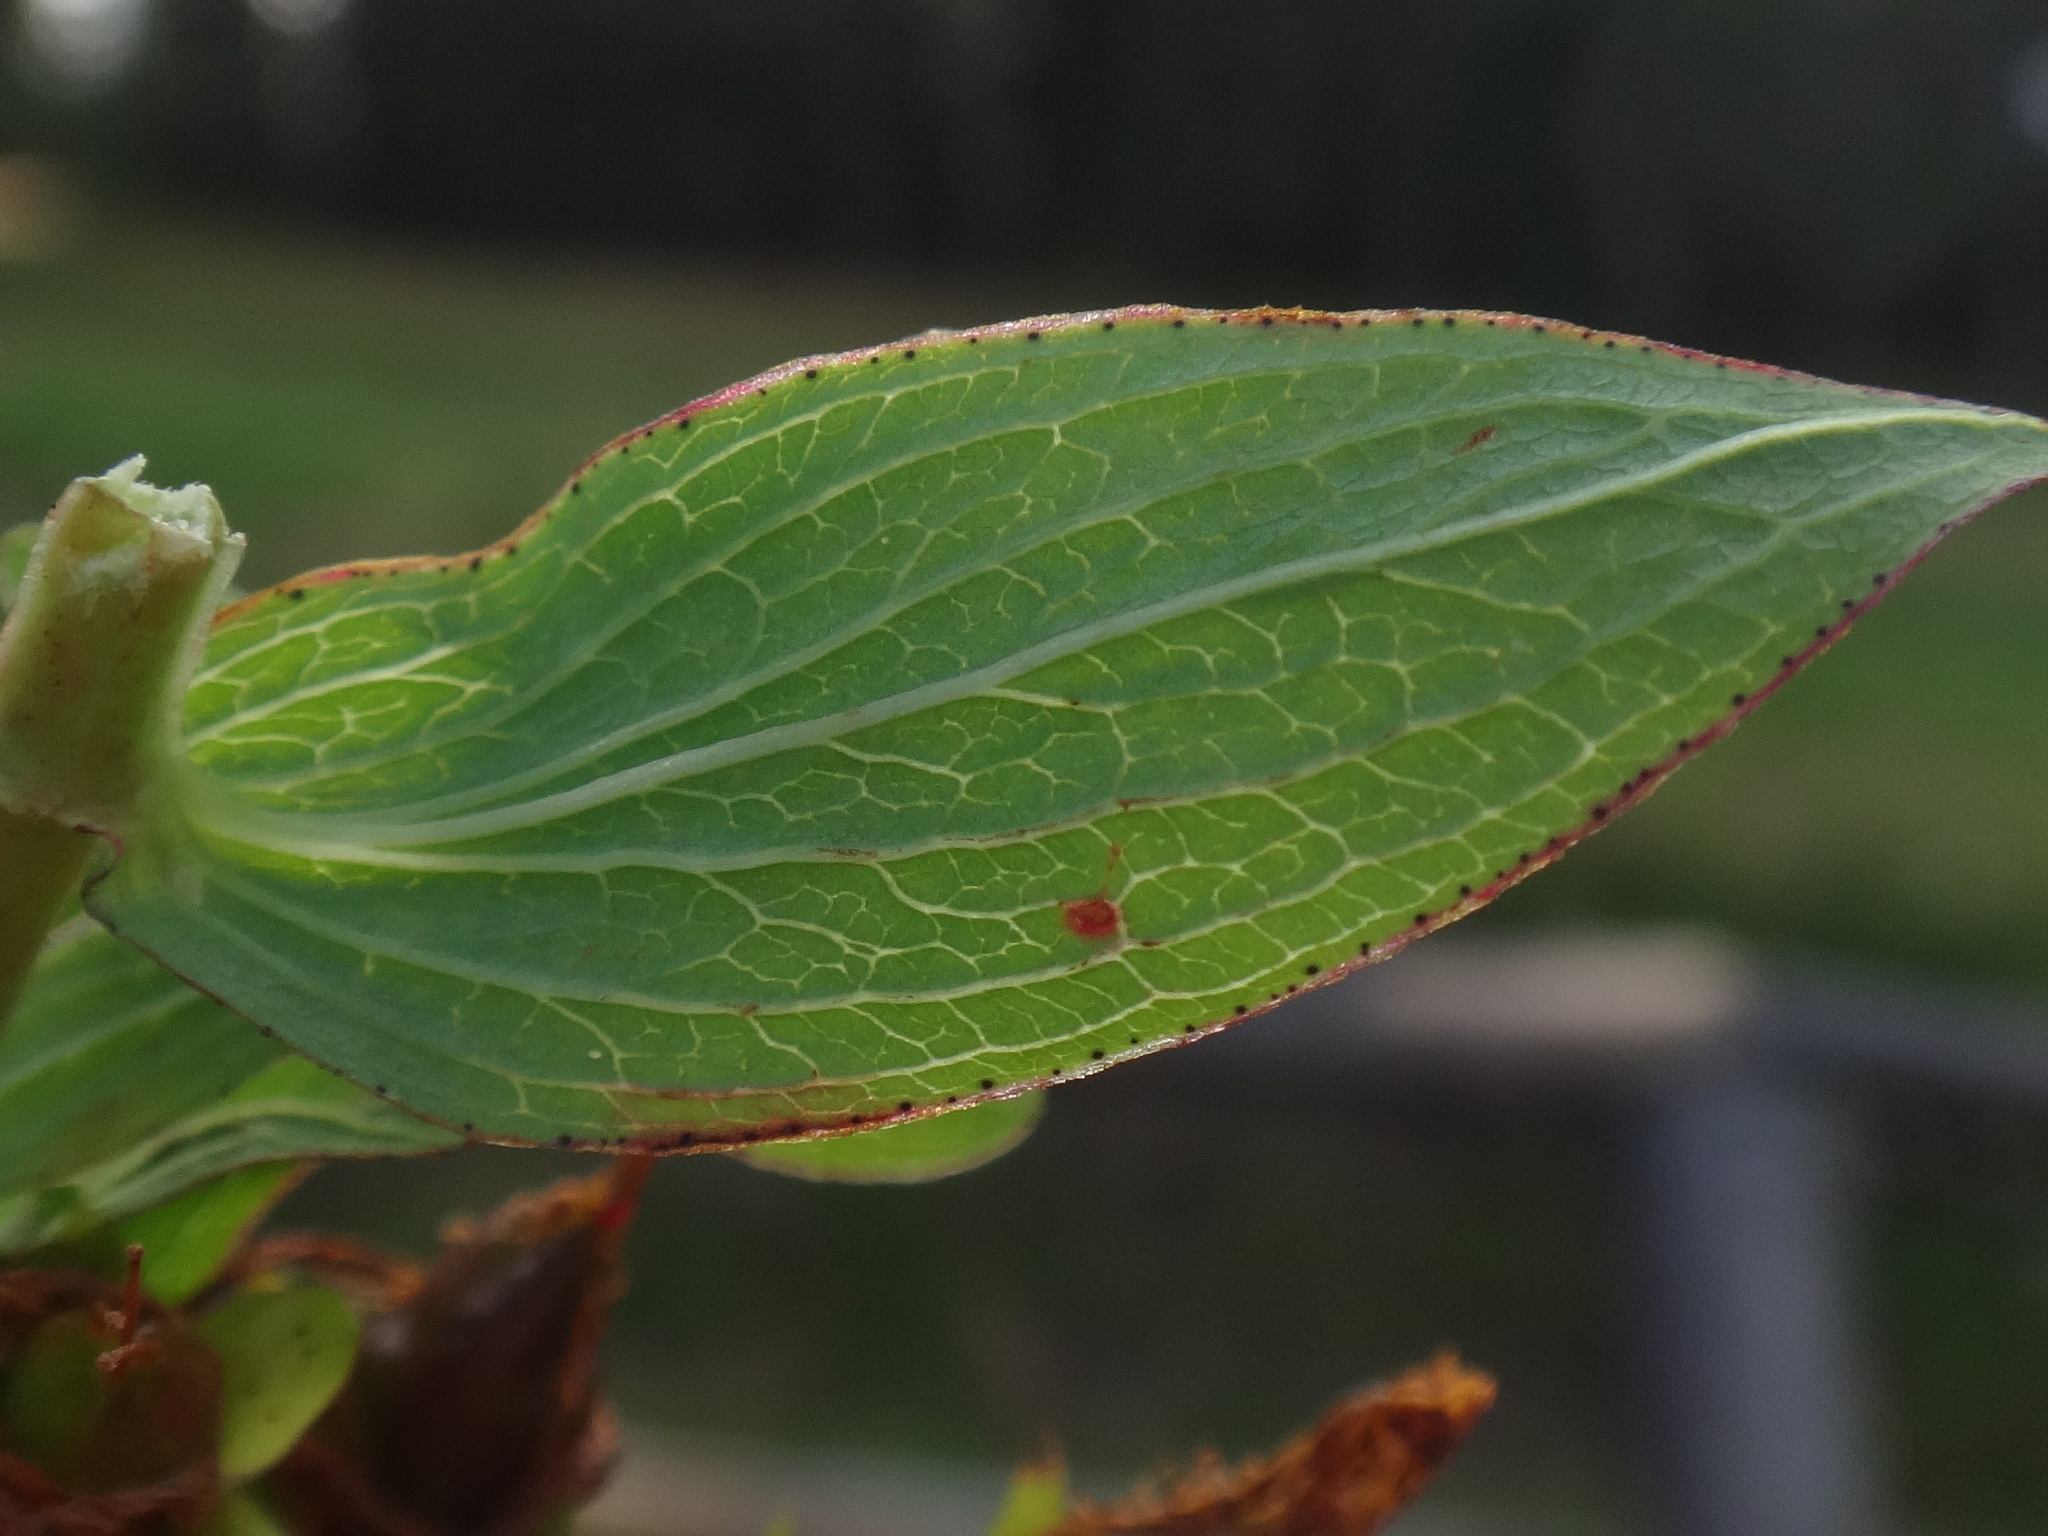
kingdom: Plantae
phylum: Tracheophyta
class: Magnoliopsida
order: Malpighiales
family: Hypericaceae
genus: Hypericum
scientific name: Hypericum maculatum
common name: Imperforate st. john's-wort
